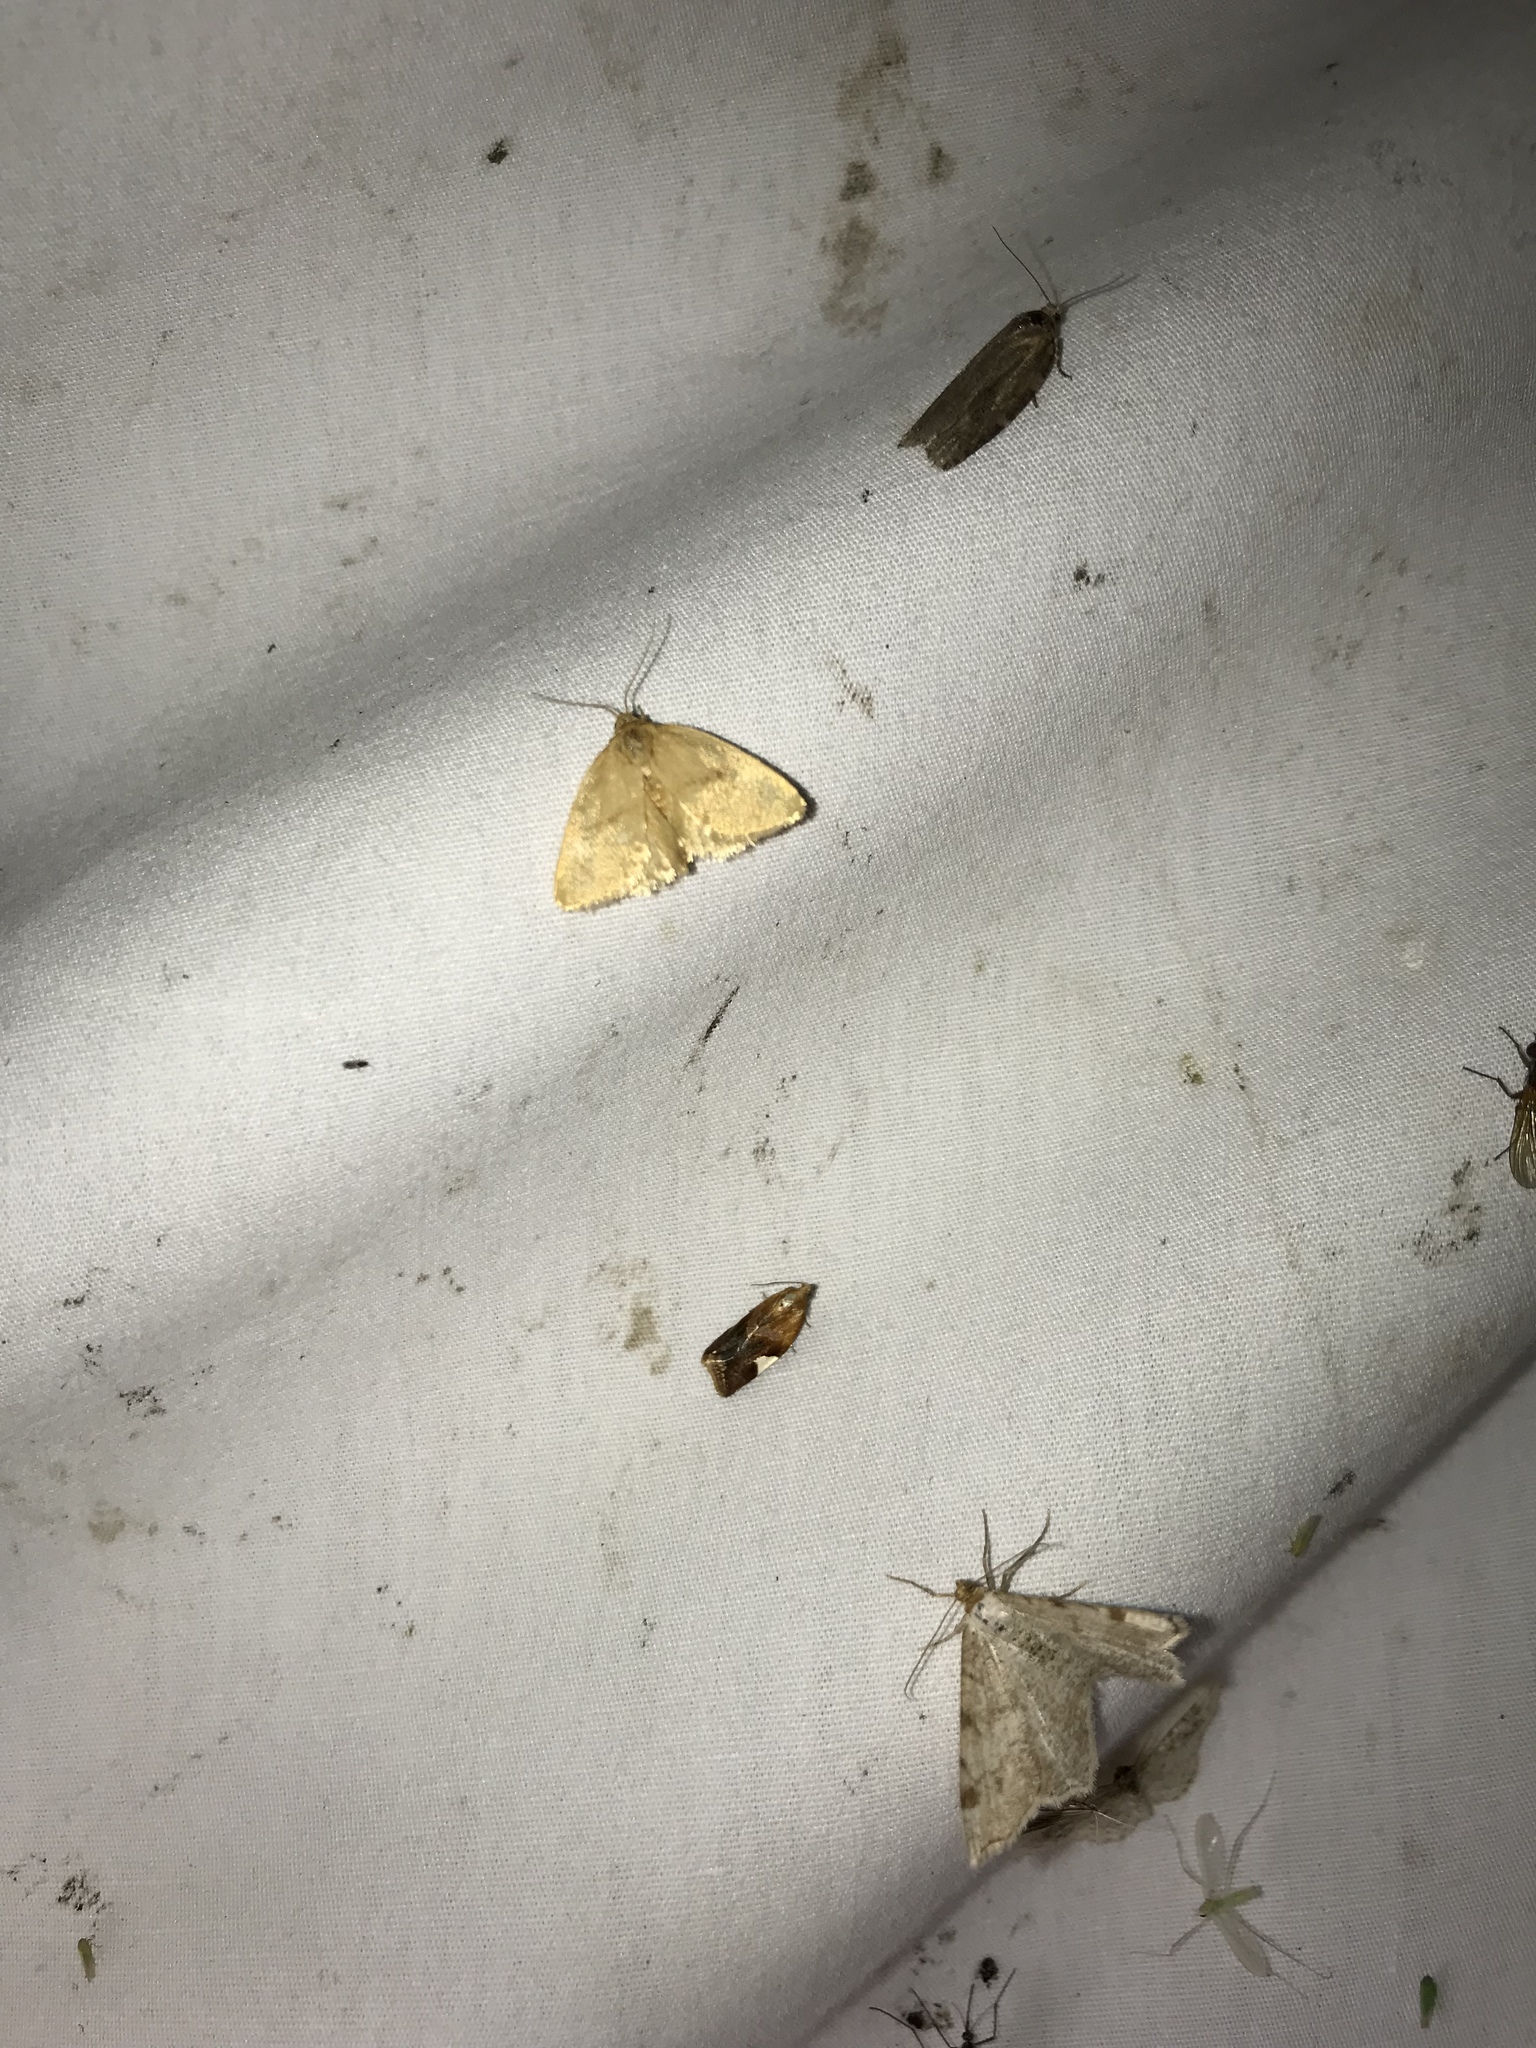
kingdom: Animalia
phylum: Arthropoda
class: Insecta
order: Lepidoptera
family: Tortricidae
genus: Clepsis
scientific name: Clepsis persicana
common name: White triangle tortrix
